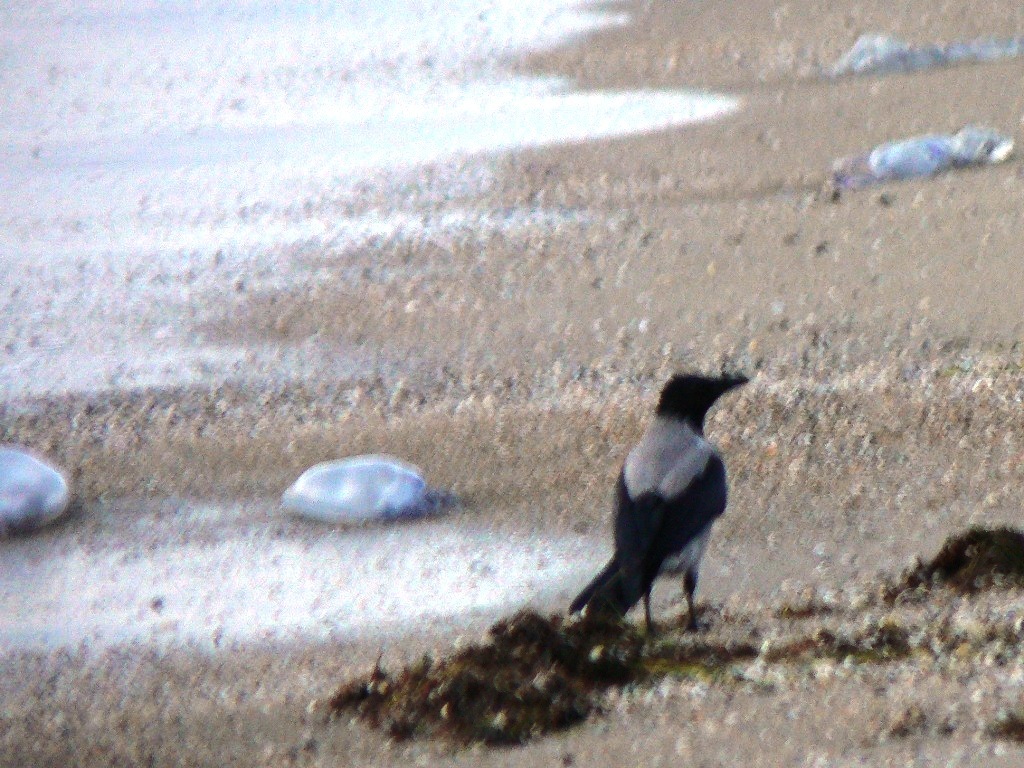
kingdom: Animalia
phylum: Chordata
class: Aves
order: Passeriformes
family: Corvidae
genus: Corvus
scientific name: Corvus cornix
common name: Hooded crow
